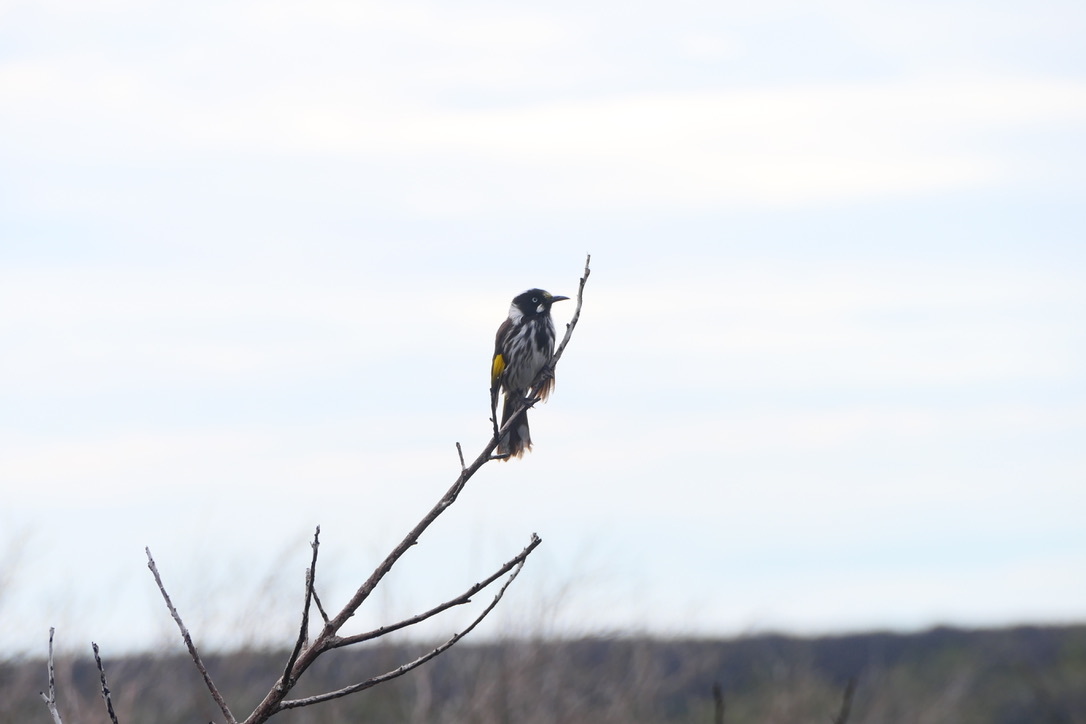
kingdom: Animalia
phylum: Chordata
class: Aves
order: Passeriformes
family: Meliphagidae
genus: Phylidonyris
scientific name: Phylidonyris novaehollandiae
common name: New holland honeyeater
